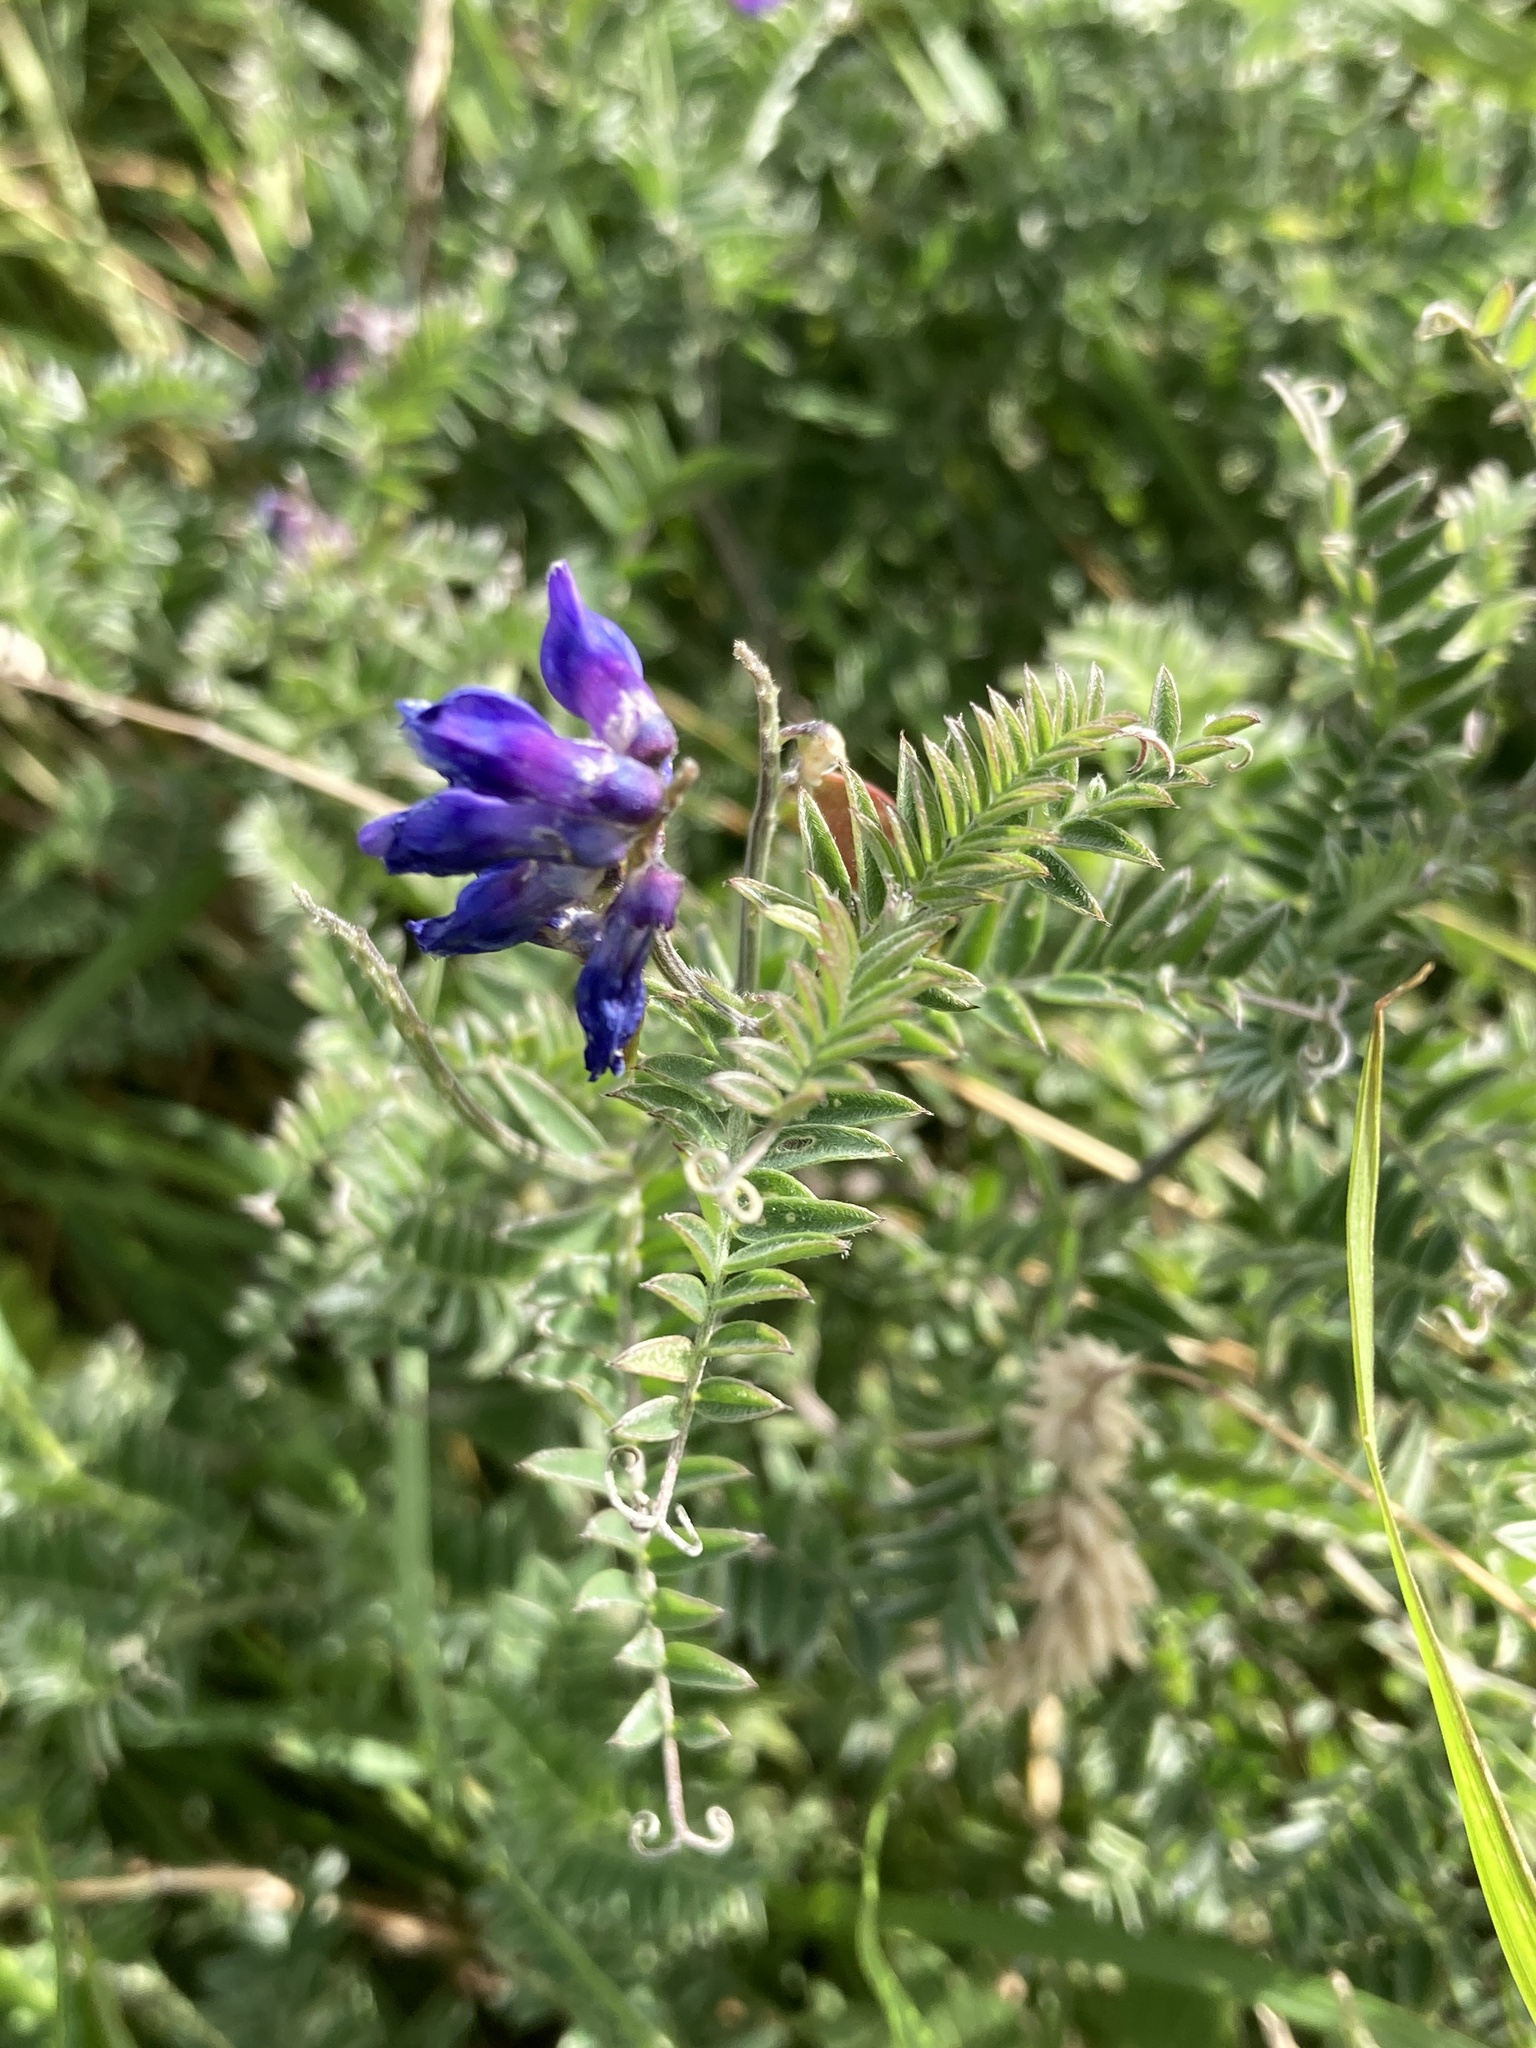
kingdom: Plantae
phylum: Tracheophyta
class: Magnoliopsida
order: Fabales
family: Fabaceae
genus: Vicia
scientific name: Vicia cracca
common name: Bird vetch
